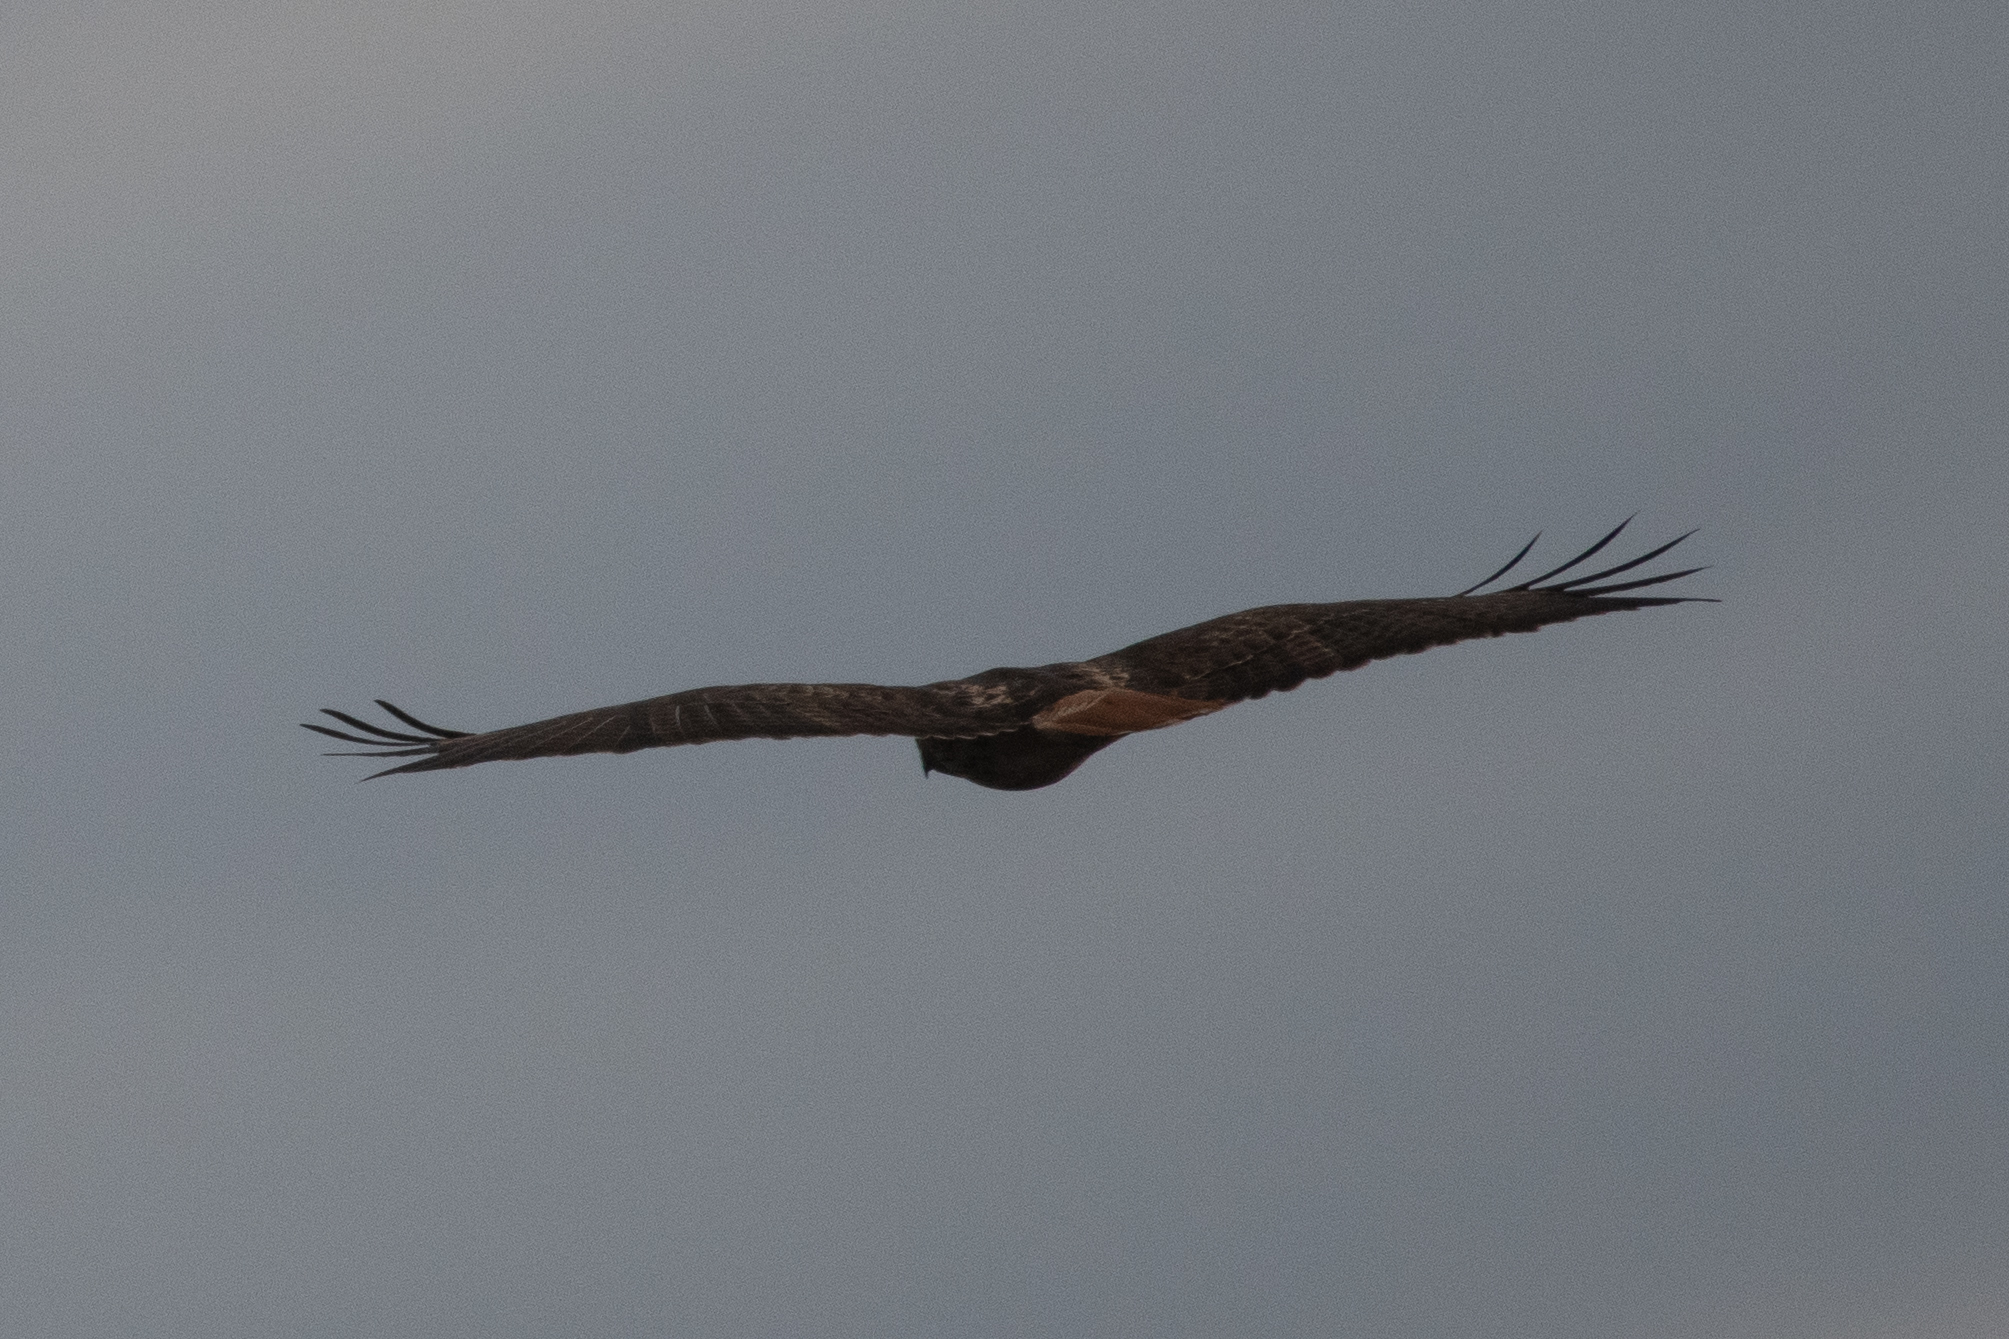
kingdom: Animalia
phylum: Chordata
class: Aves
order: Accipitriformes
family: Accipitridae
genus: Buteo
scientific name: Buteo jamaicensis
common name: Red-tailed hawk
